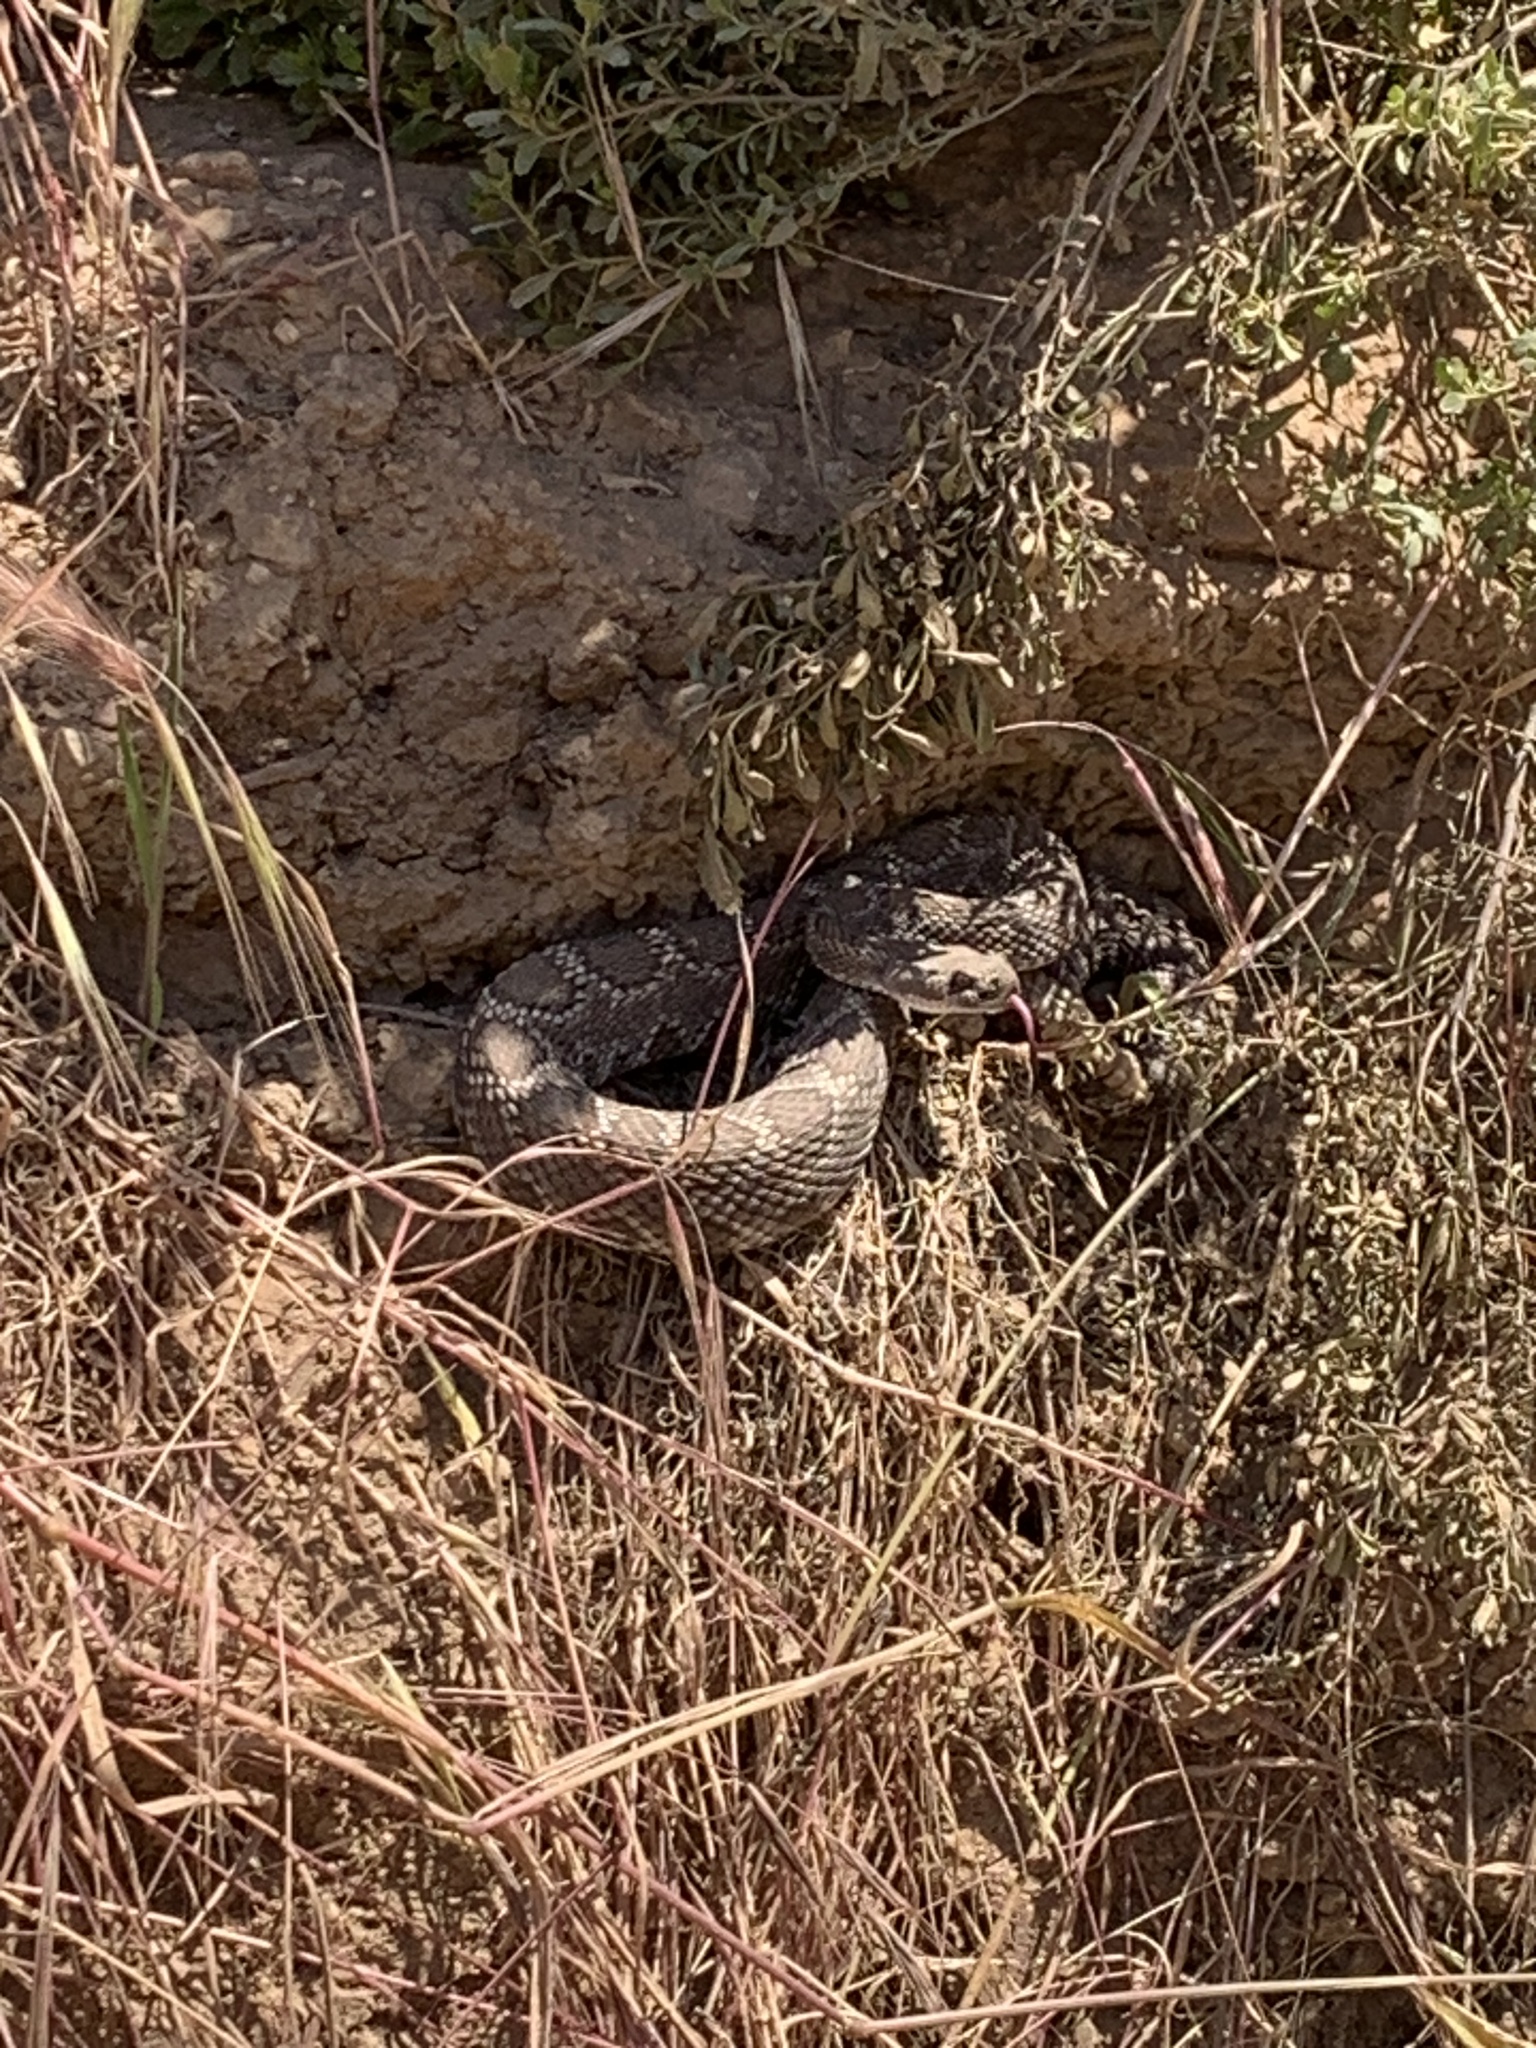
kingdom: Animalia
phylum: Chordata
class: Squamata
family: Viperidae
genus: Crotalus
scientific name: Crotalus oreganus
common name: Abyssus
